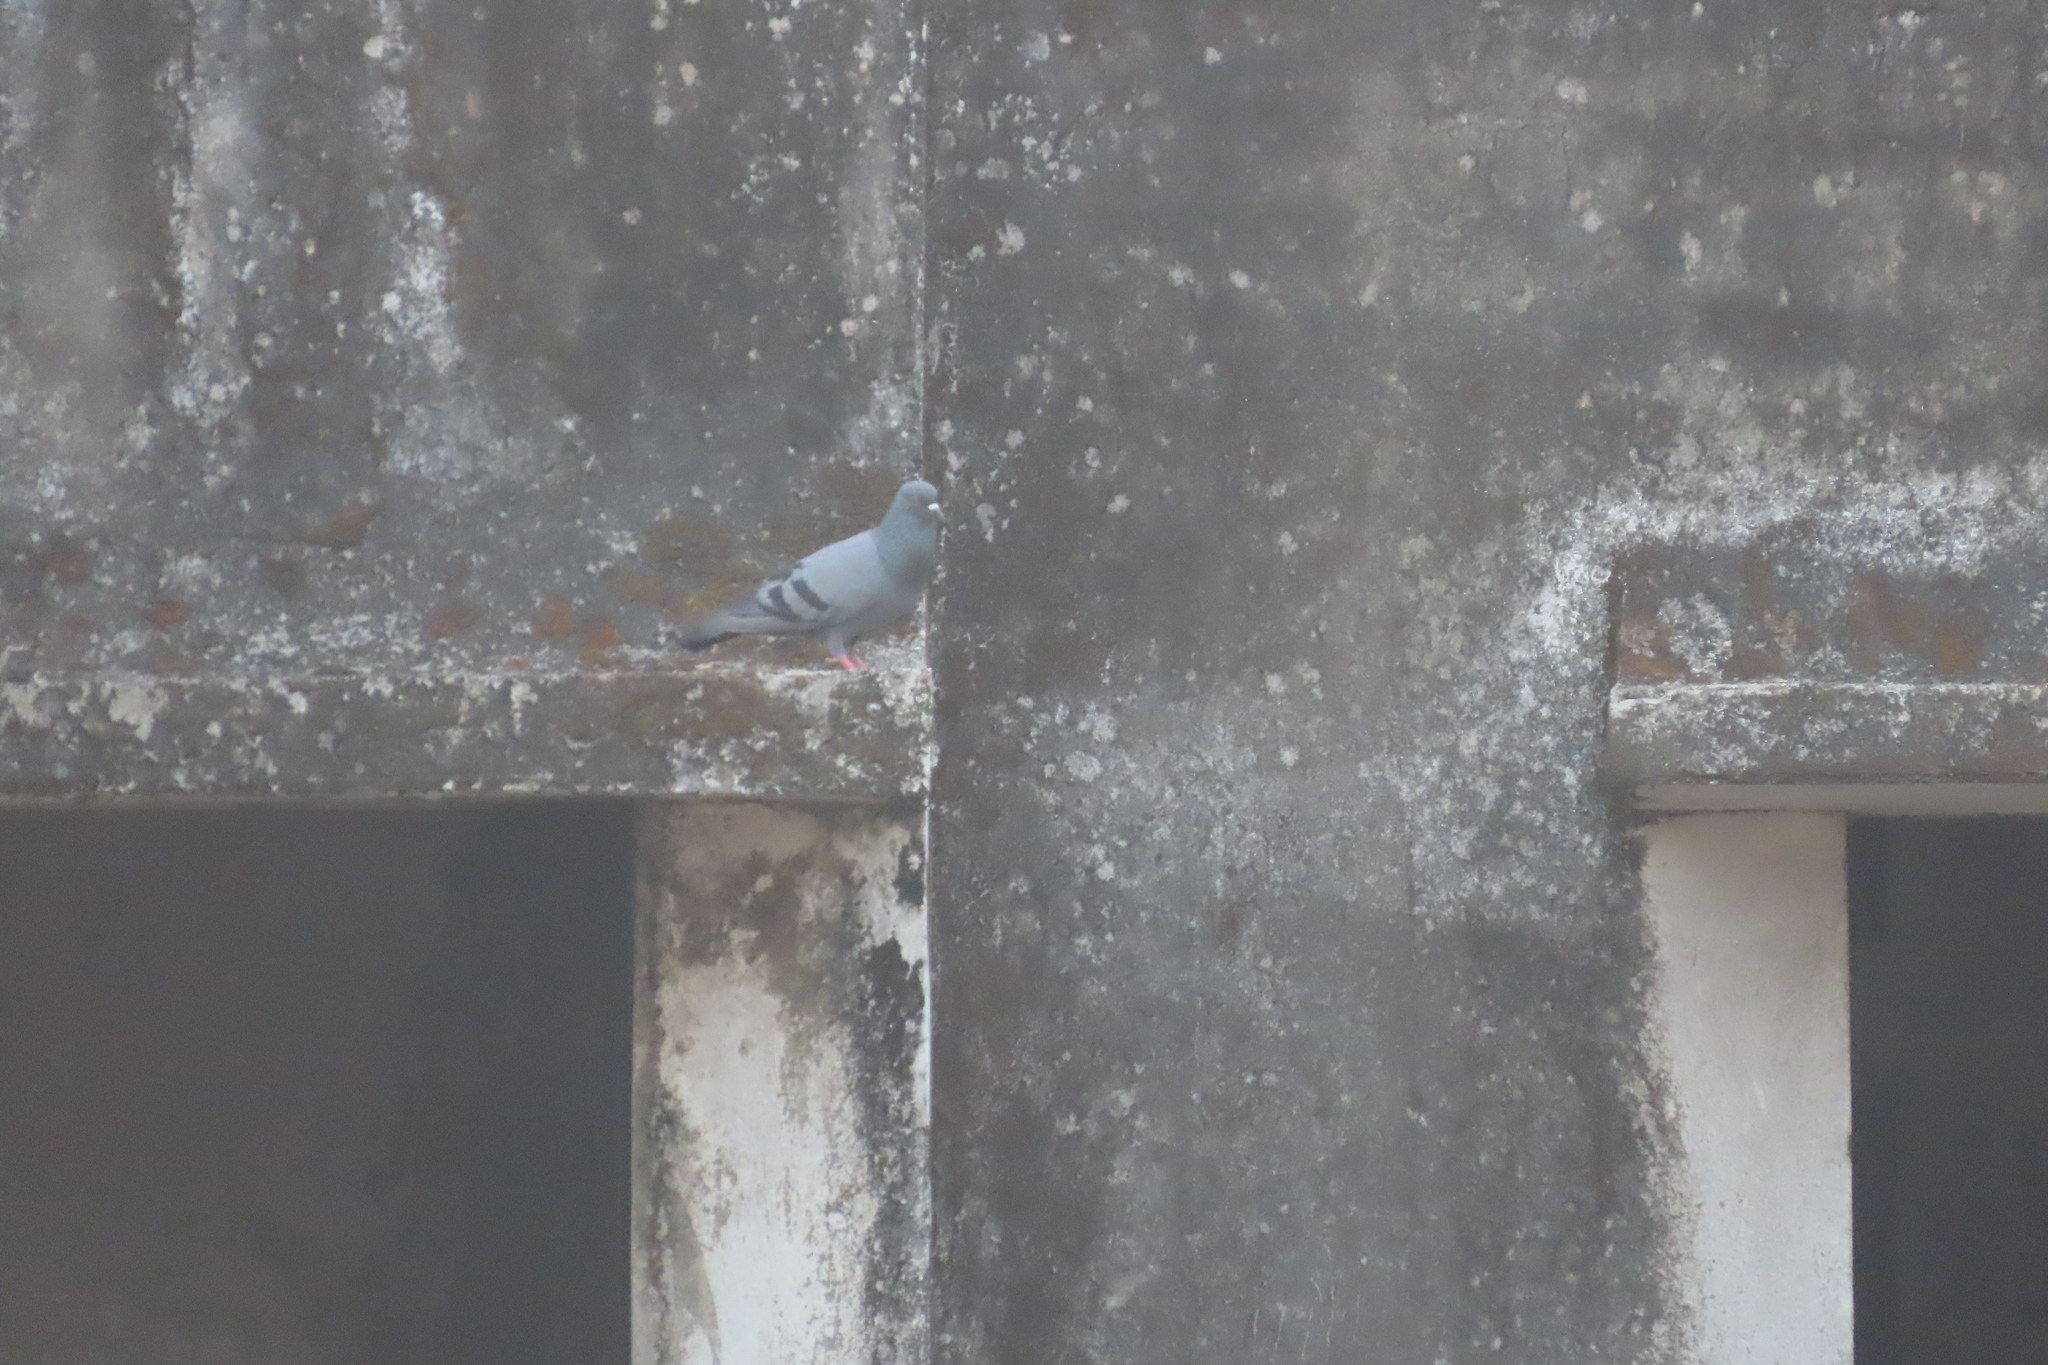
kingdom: Animalia
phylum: Chordata
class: Aves
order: Columbiformes
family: Columbidae
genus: Columba
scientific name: Columba livia
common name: Rock pigeon
